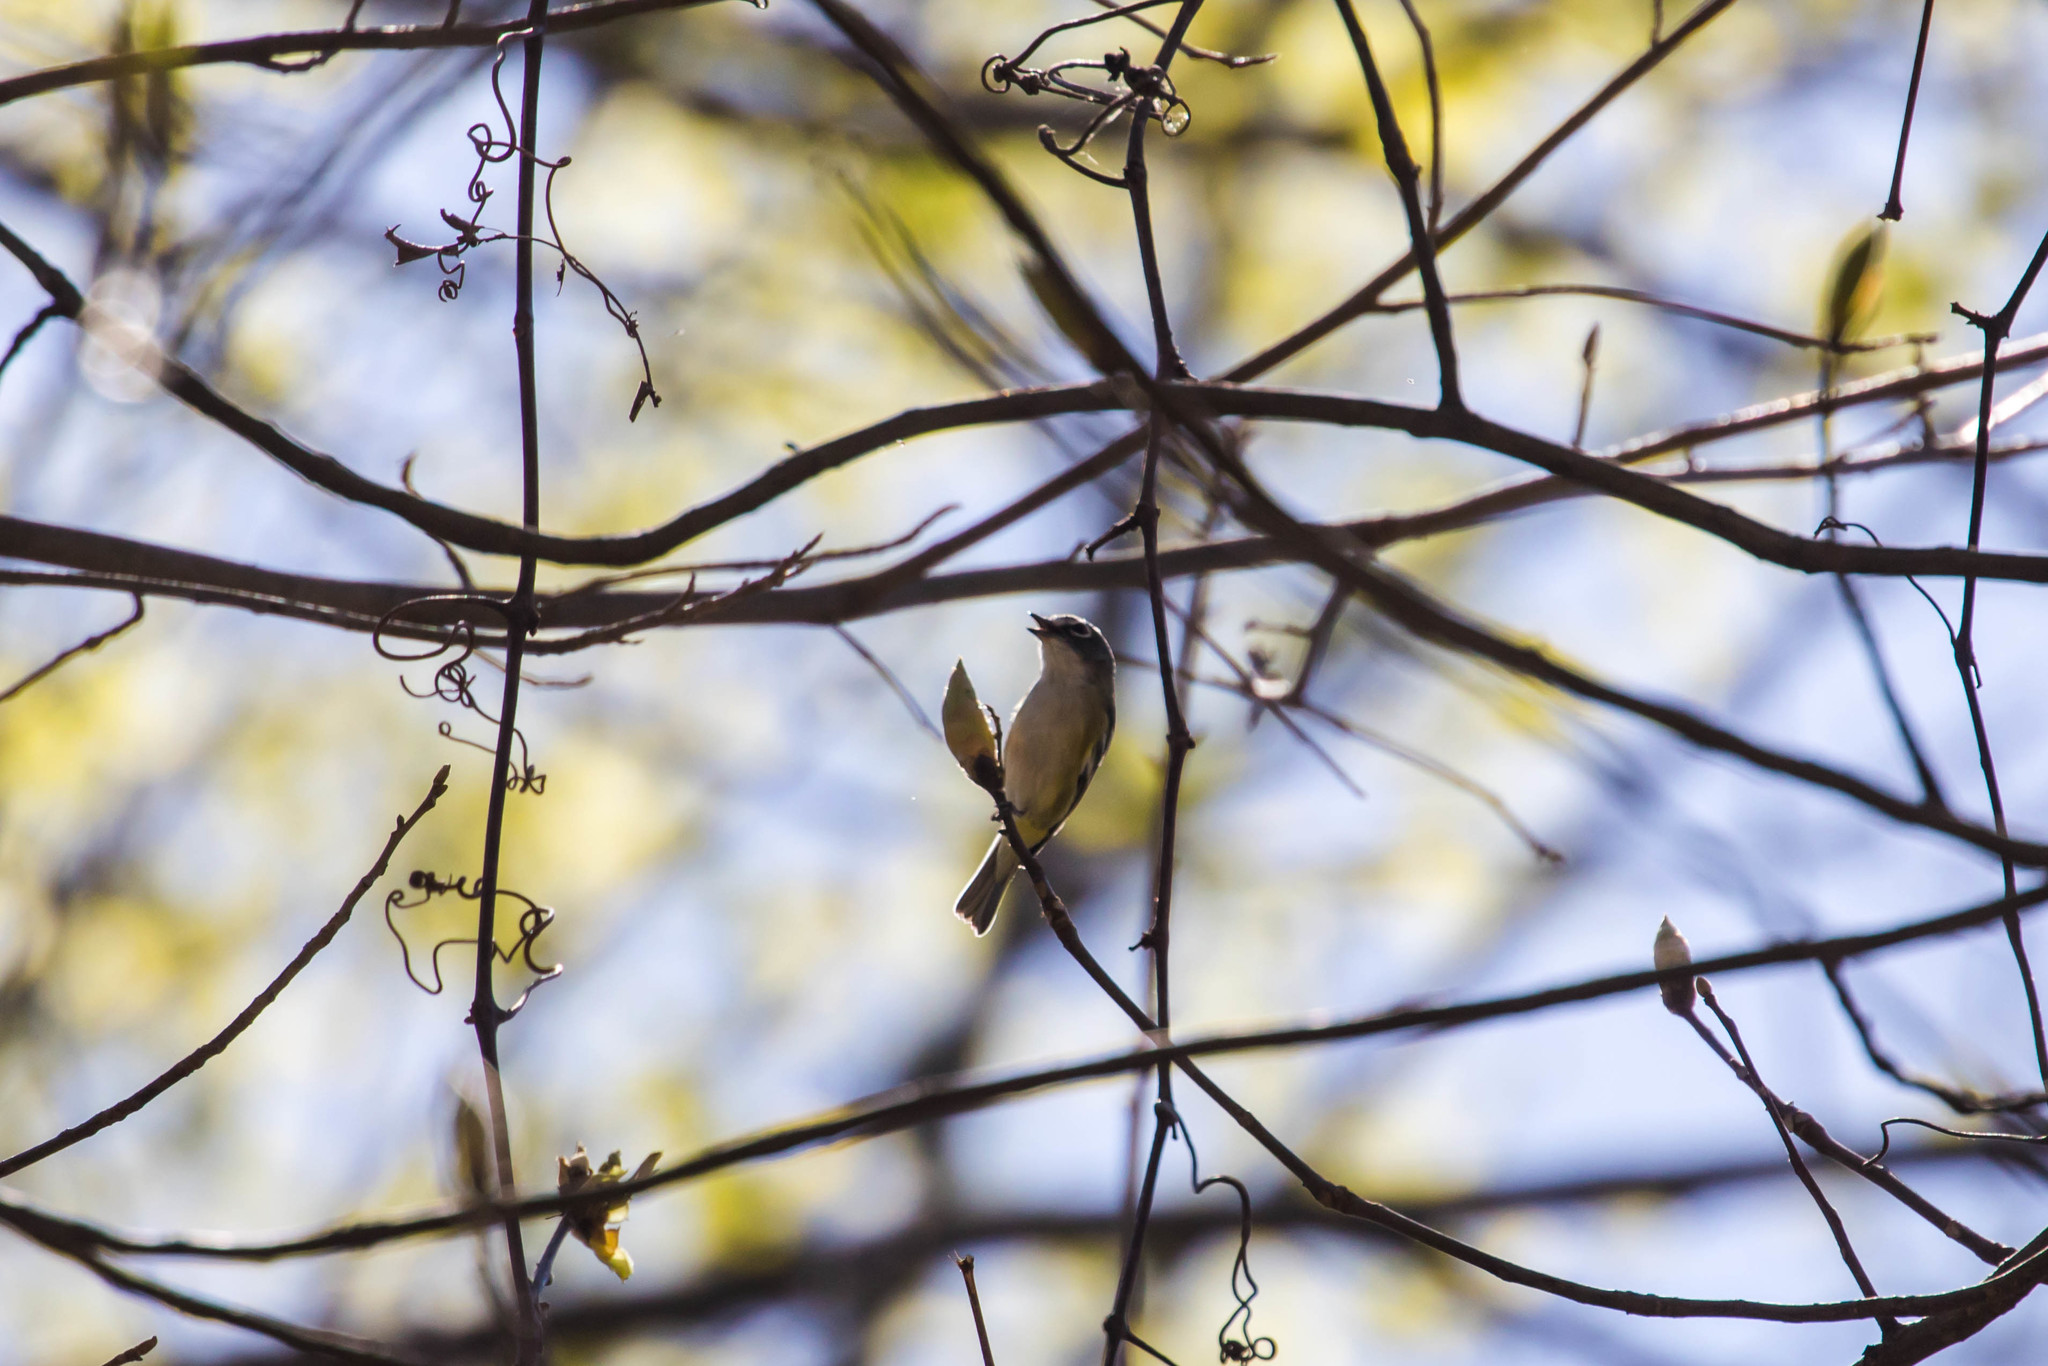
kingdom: Animalia
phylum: Chordata
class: Aves
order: Passeriformes
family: Vireonidae
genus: Vireo
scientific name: Vireo solitarius
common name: Blue-headed vireo
